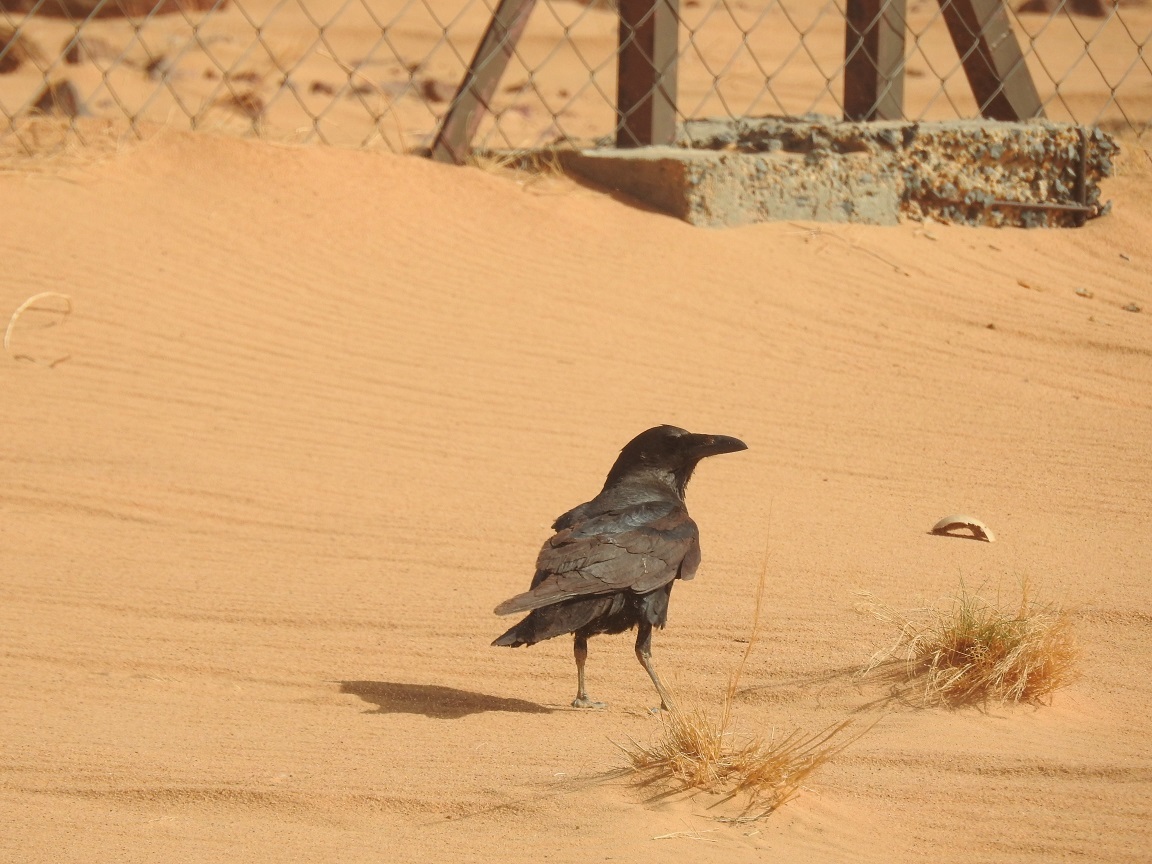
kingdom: Animalia
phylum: Chordata
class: Aves
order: Passeriformes
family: Corvidae
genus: Corvus
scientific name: Corvus ruficollis
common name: Brown-necked raven
